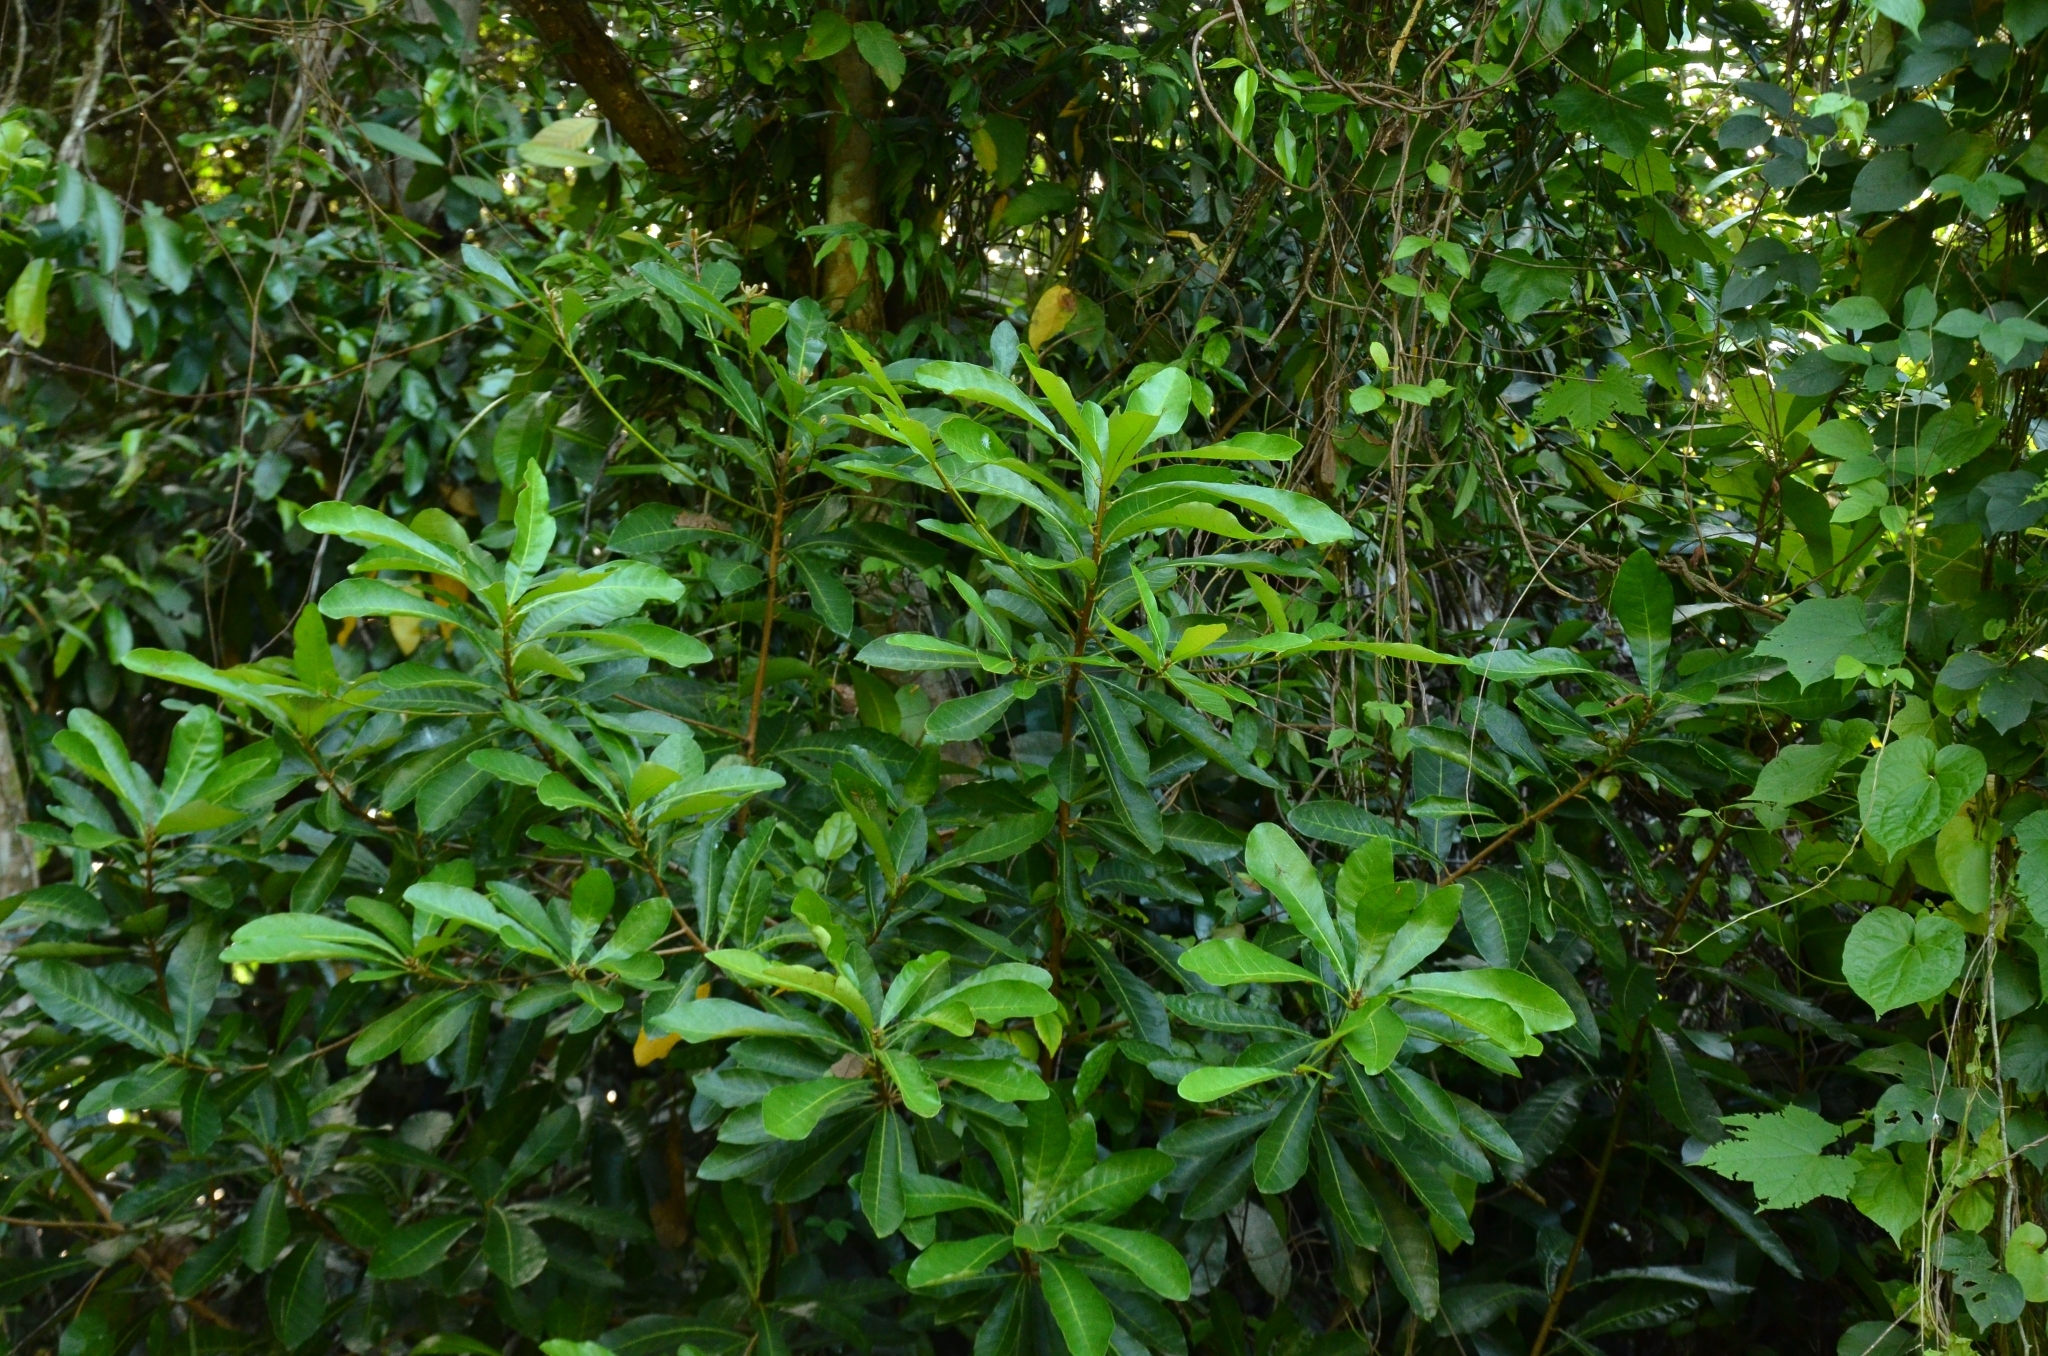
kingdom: Plantae
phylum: Tracheophyta
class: Magnoliopsida
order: Sapindales
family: Anacardiaceae
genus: Holigarna
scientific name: Holigarna arnottiana
